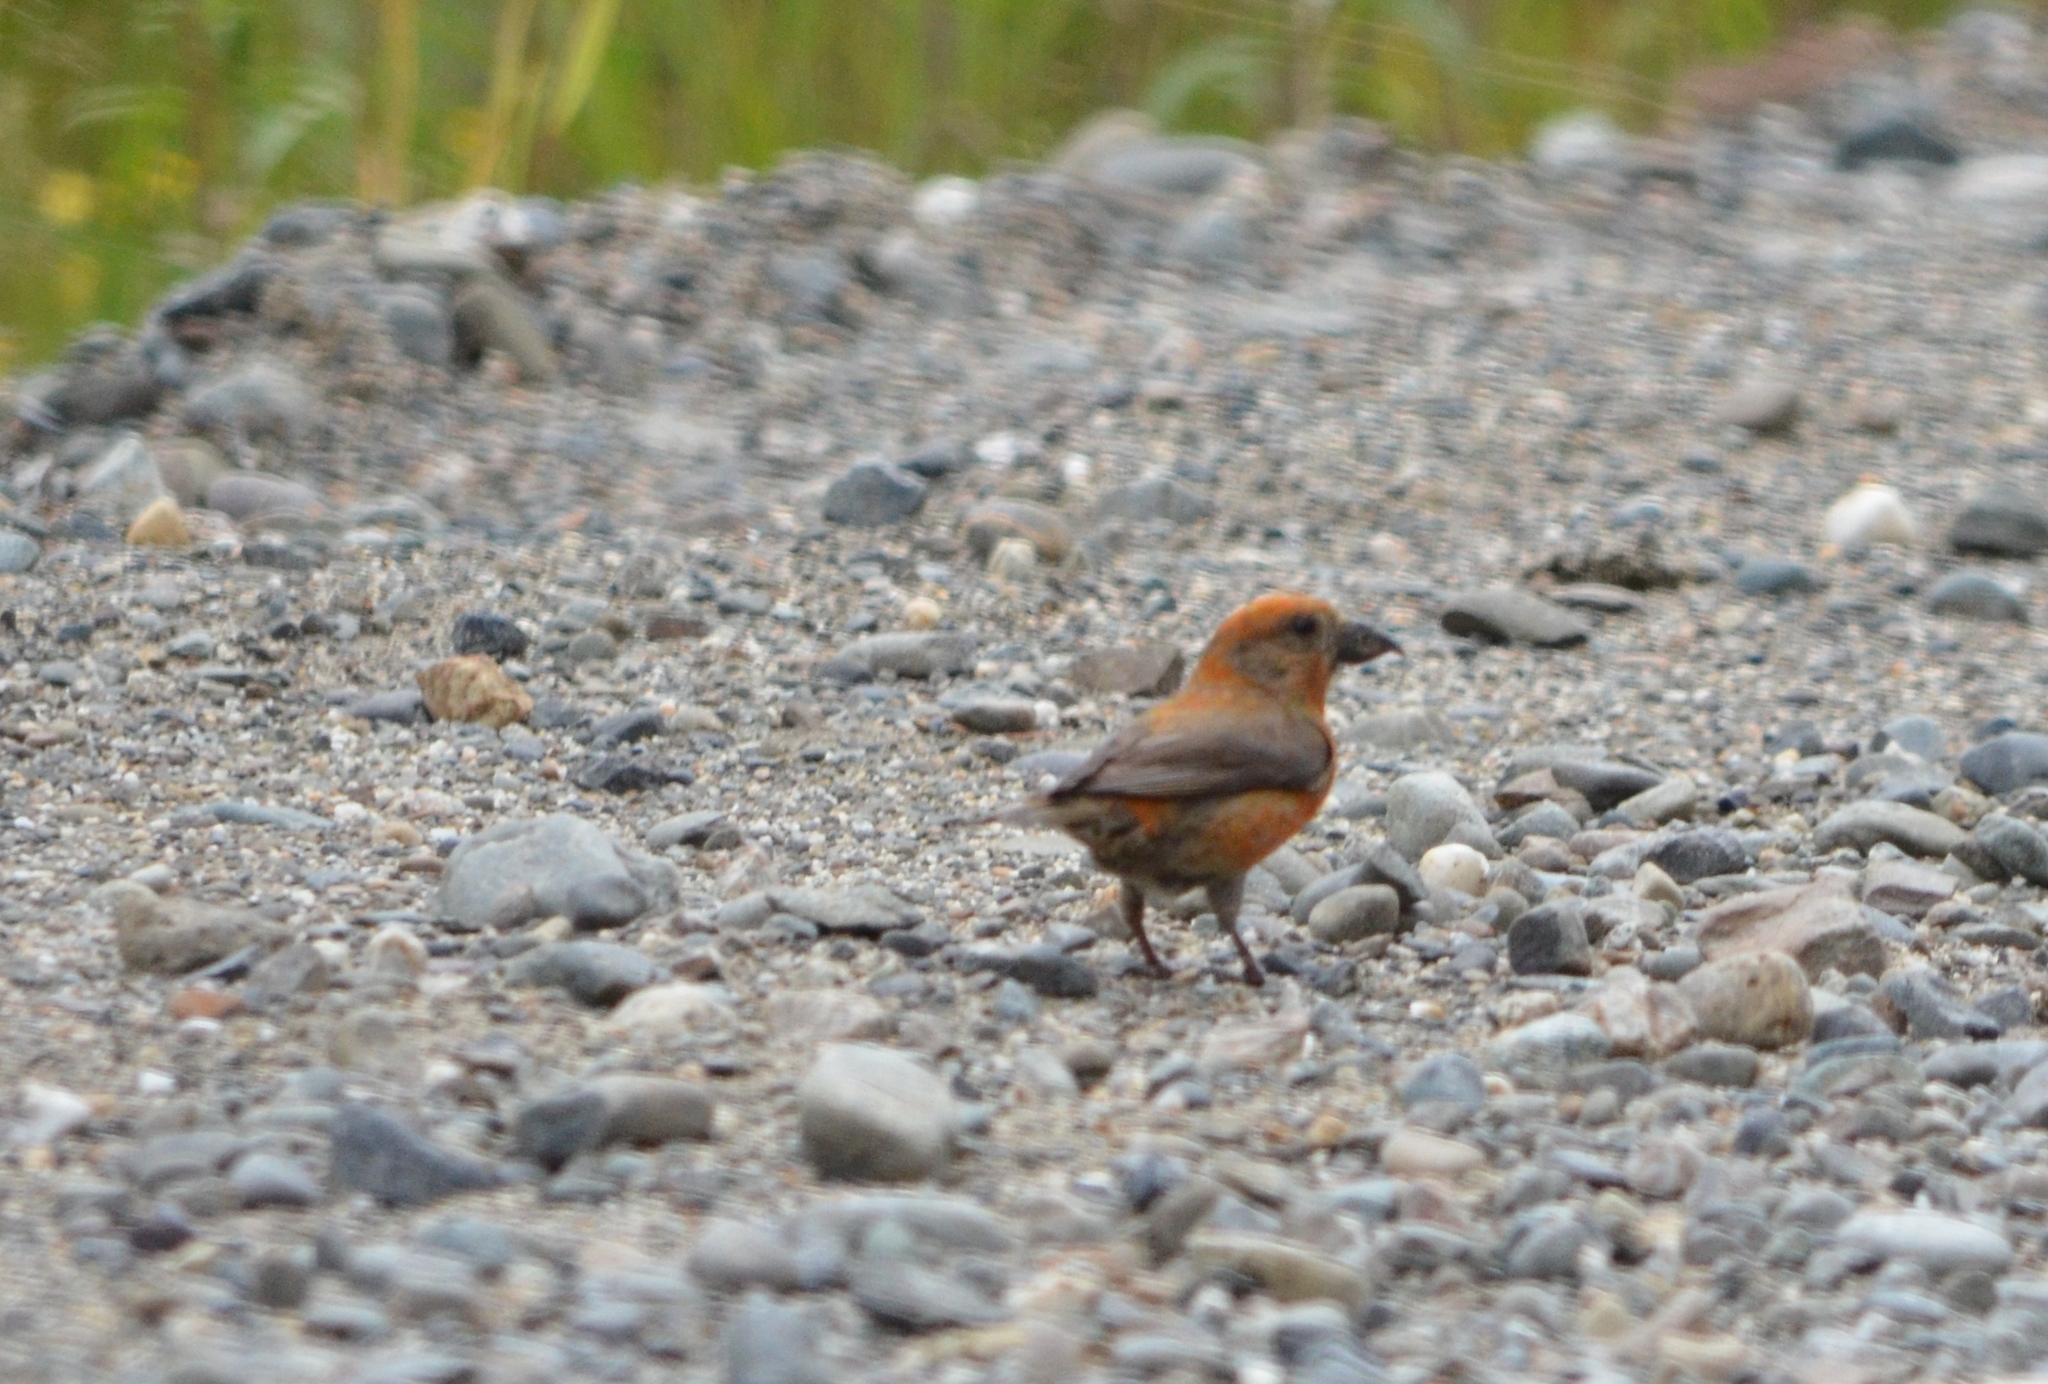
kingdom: Animalia
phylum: Chordata
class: Aves
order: Passeriformes
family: Fringillidae
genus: Loxia
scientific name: Loxia curvirostra
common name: Red crossbill
